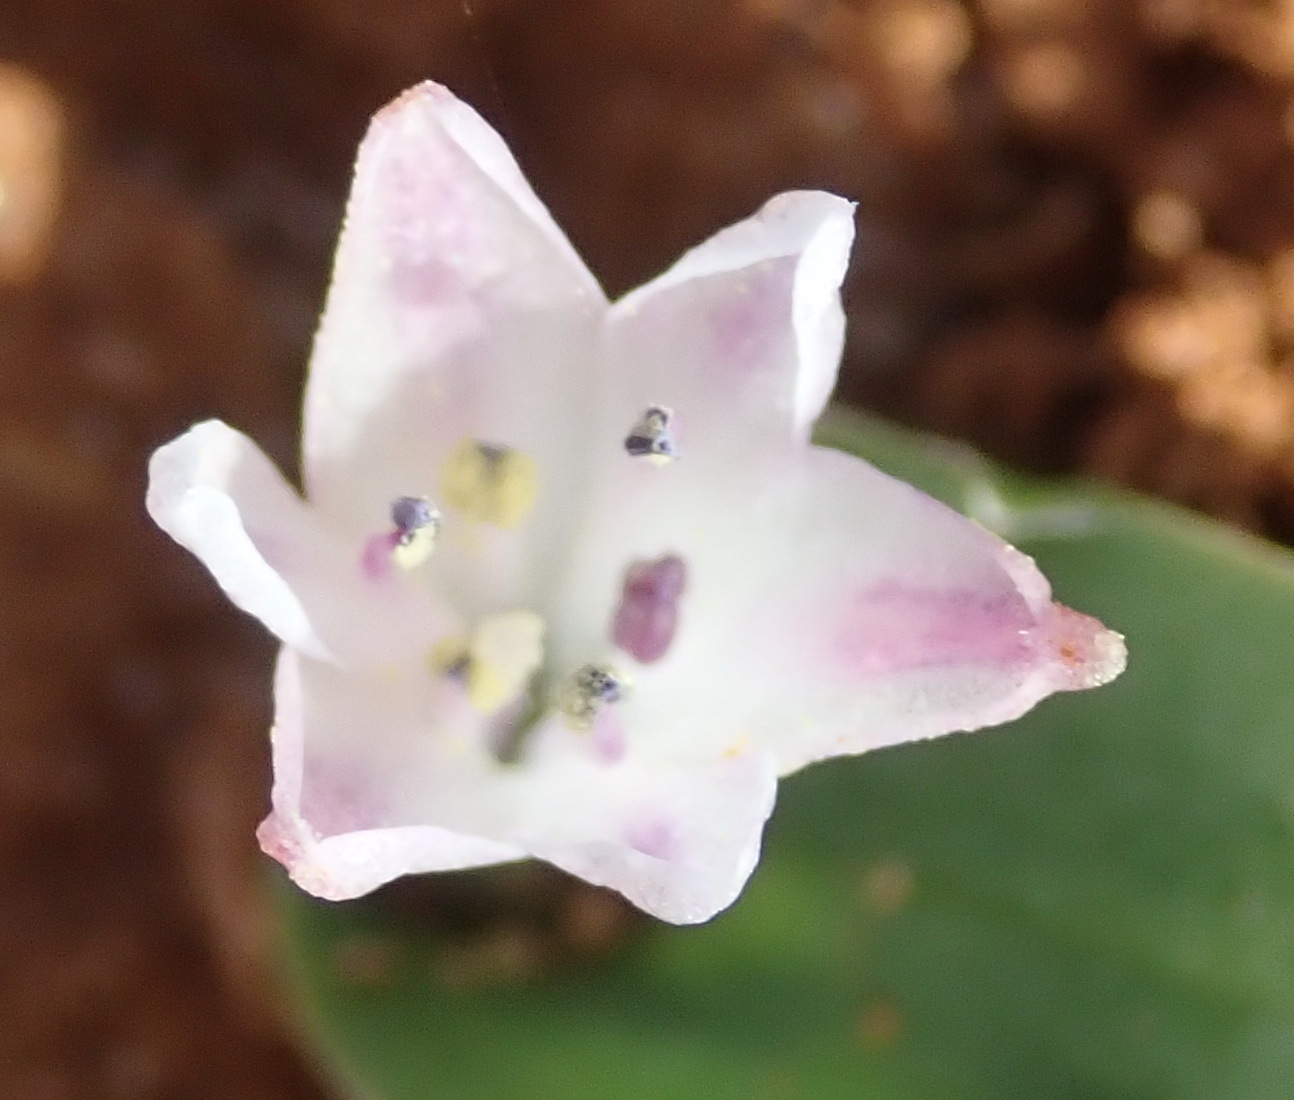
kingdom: Plantae
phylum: Tracheophyta
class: Liliopsida
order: Asparagales
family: Asparagaceae
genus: Lachenalia
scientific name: Lachenalia ensifolia
